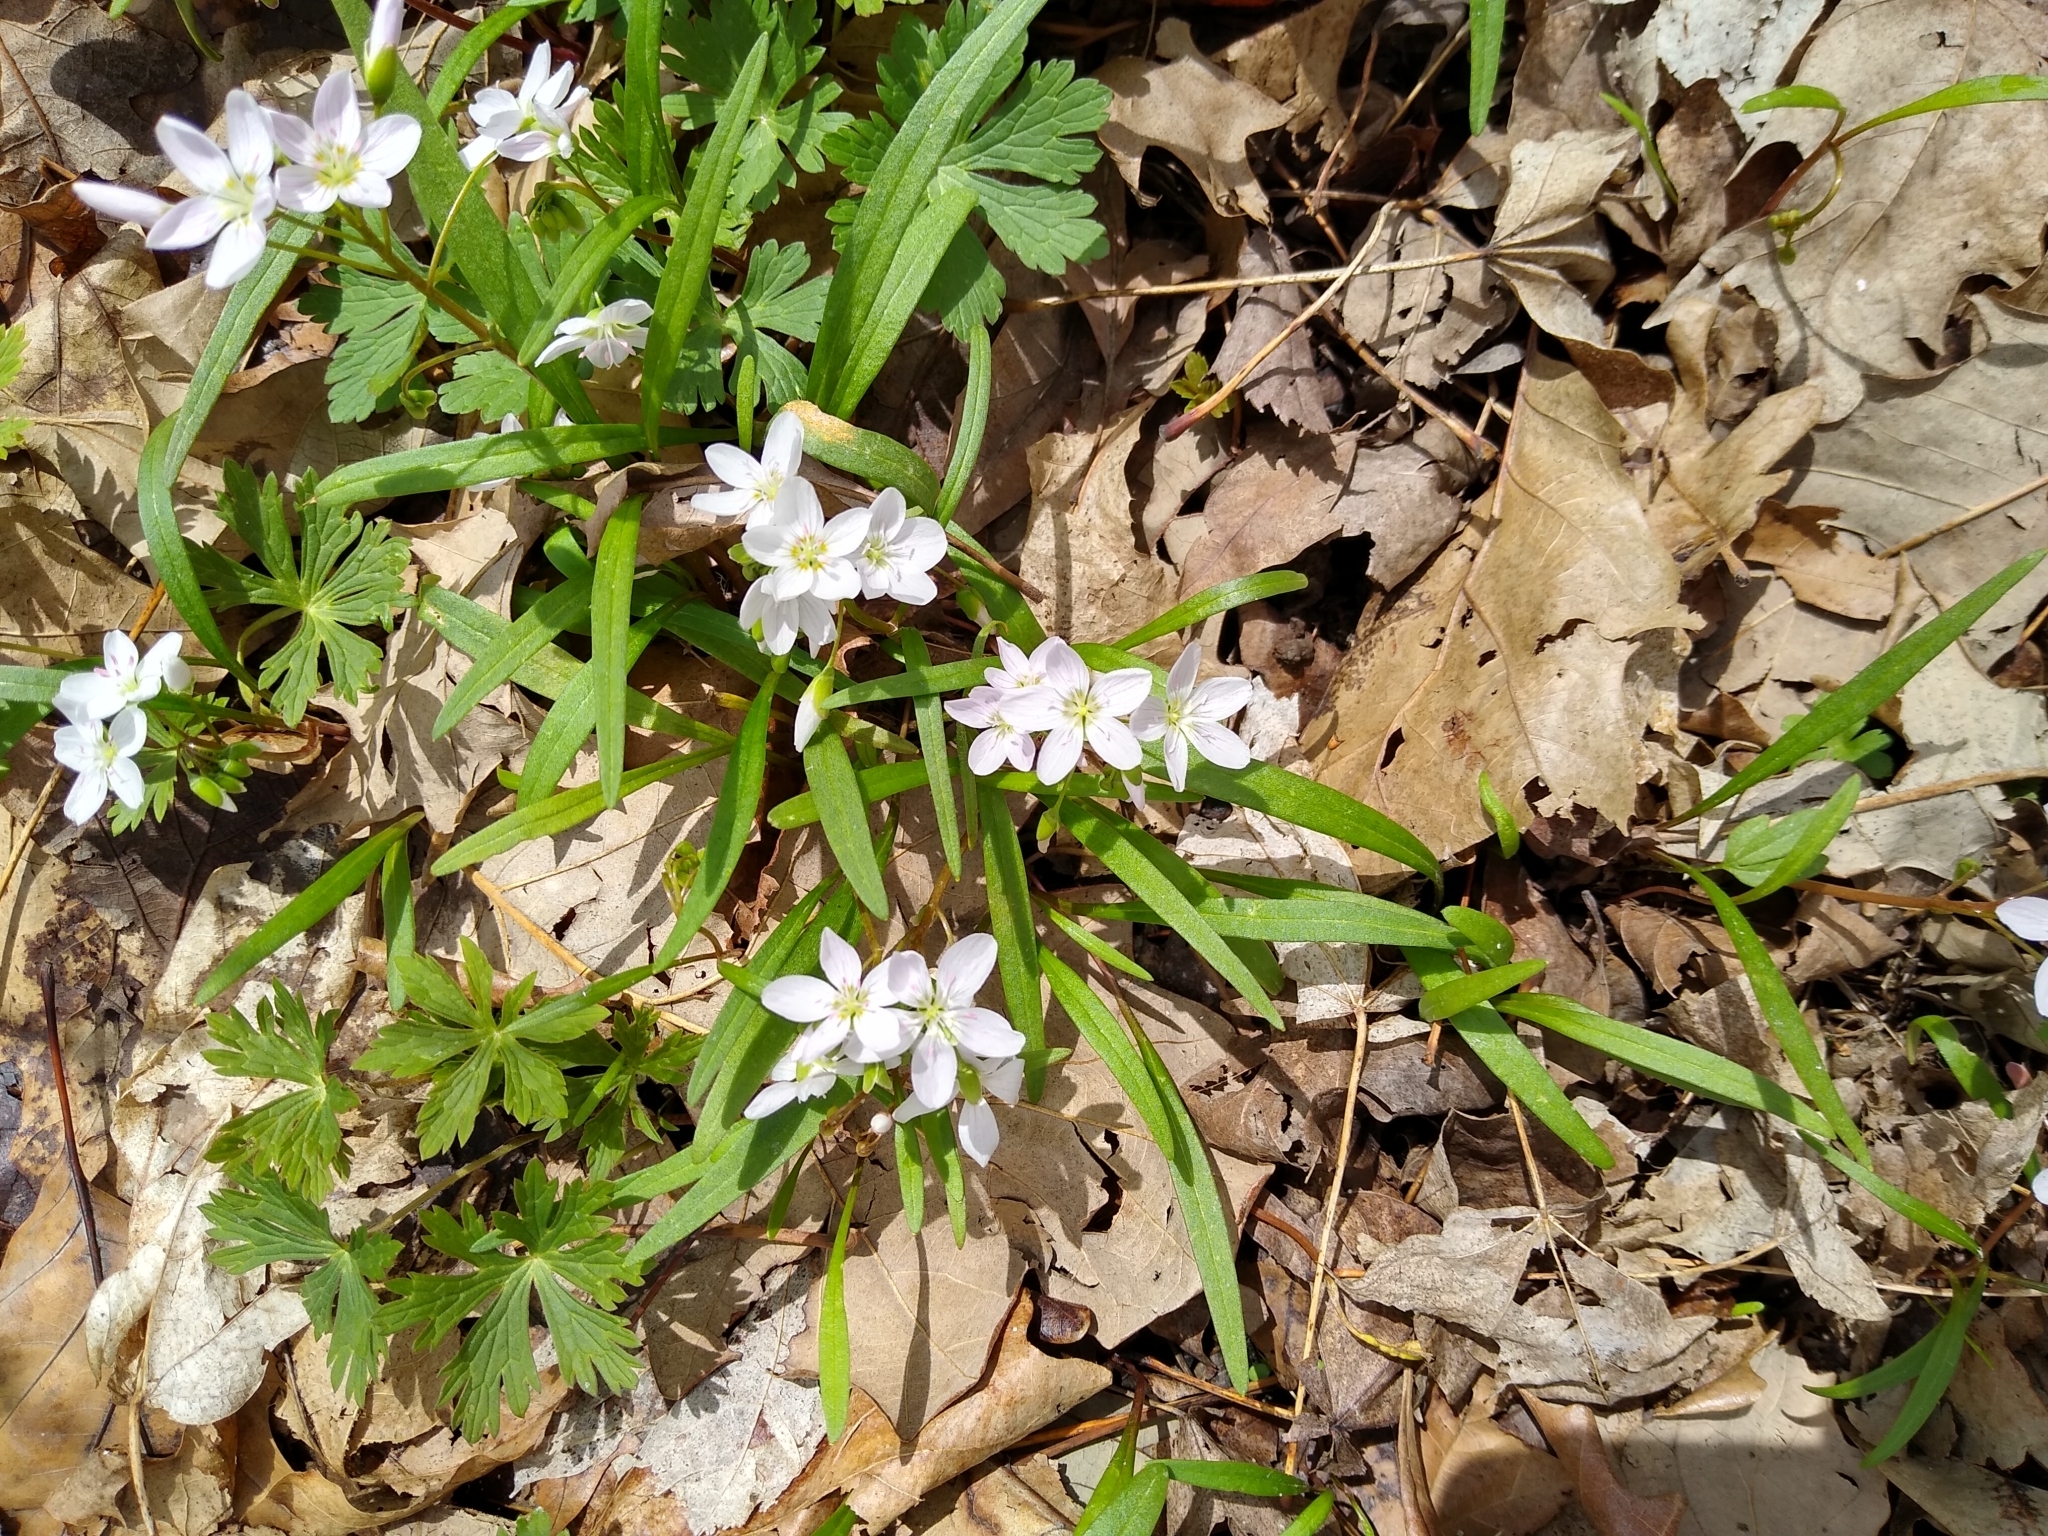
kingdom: Plantae
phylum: Tracheophyta
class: Magnoliopsida
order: Caryophyllales
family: Montiaceae
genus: Claytonia
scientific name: Claytonia virginica
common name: Virginia springbeauty
